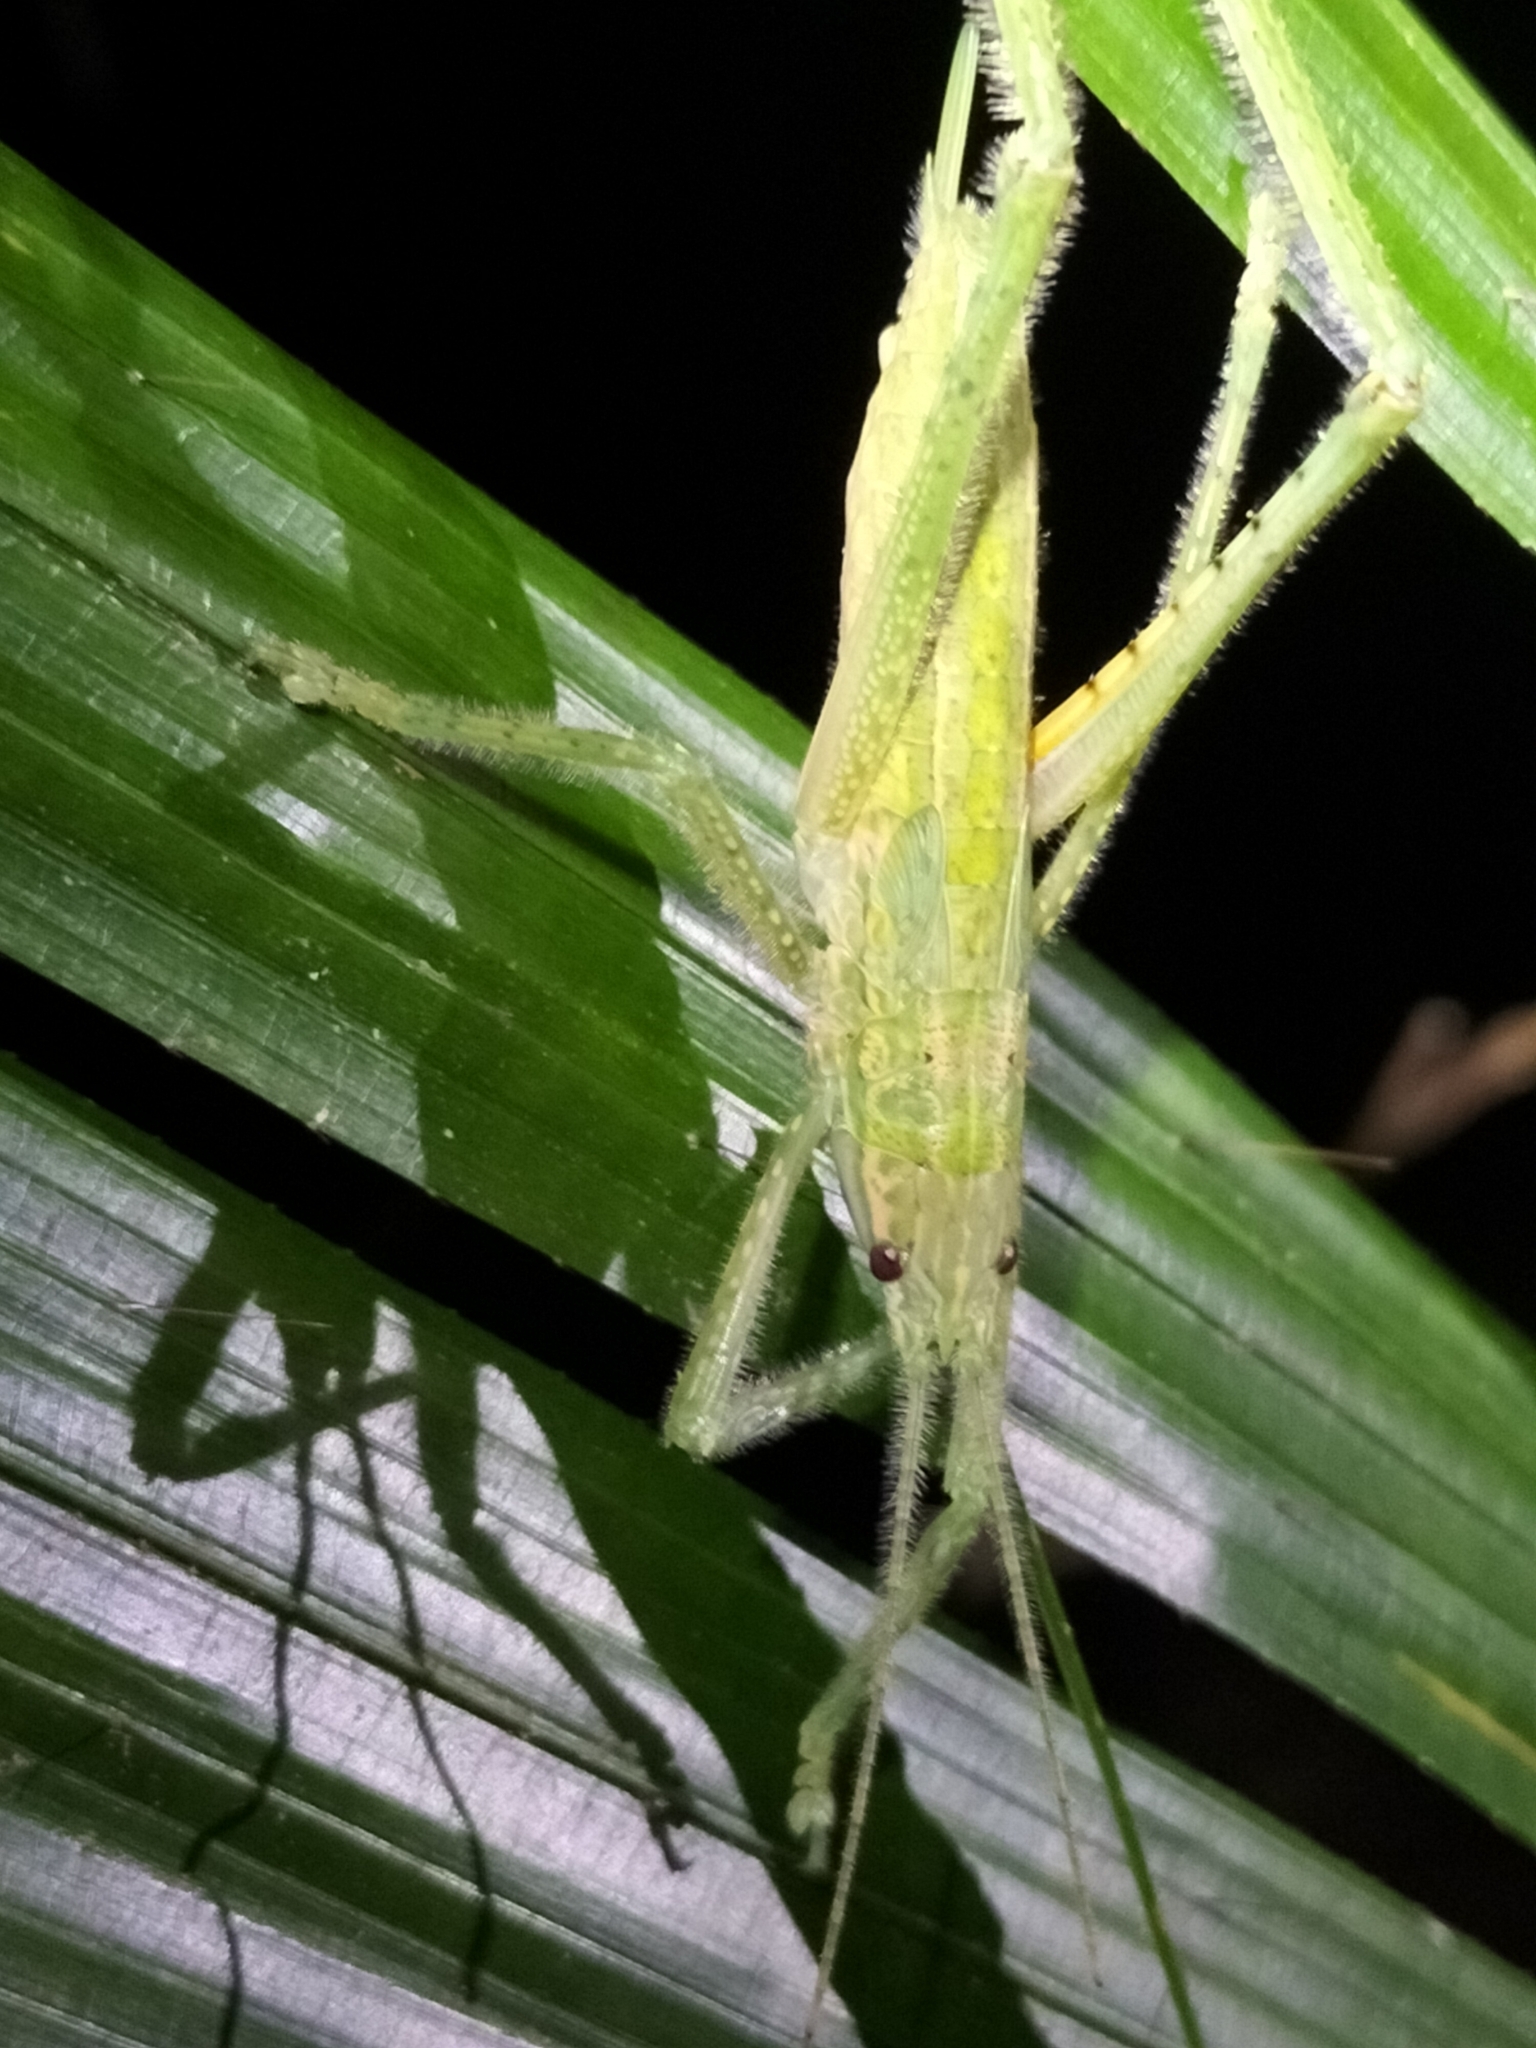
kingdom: Animalia
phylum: Arthropoda
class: Insecta
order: Orthoptera
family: Tettigoniidae
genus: Segestidea
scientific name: Segestidea queenslandica
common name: Queensland palm katydid
